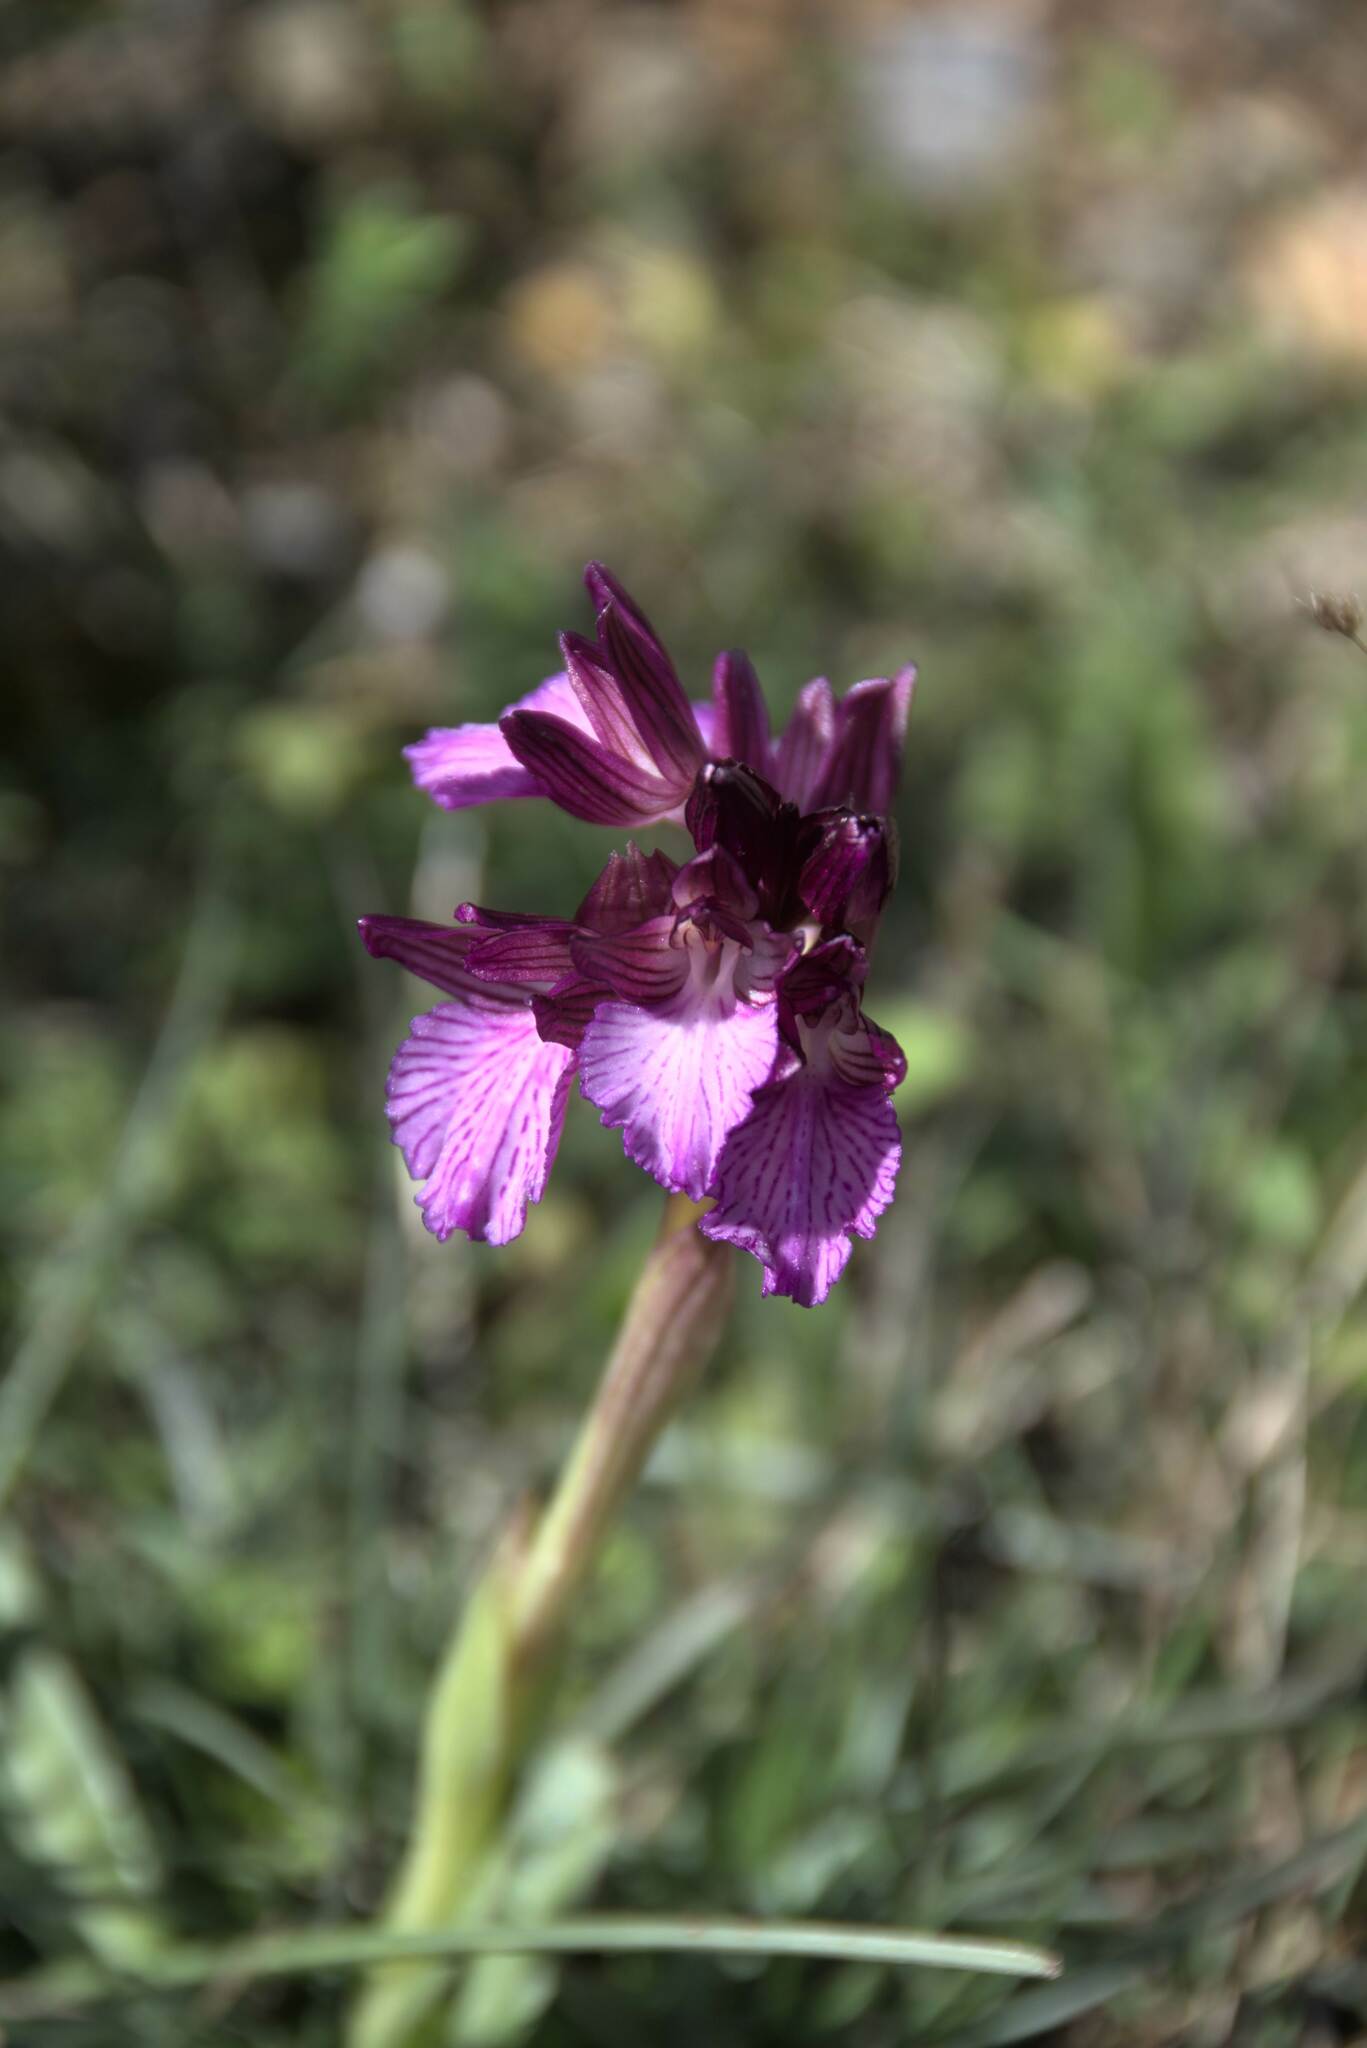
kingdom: Plantae
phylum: Tracheophyta
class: Liliopsida
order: Asparagales
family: Orchidaceae
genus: Anacamptis
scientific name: Anacamptis papilionacea
